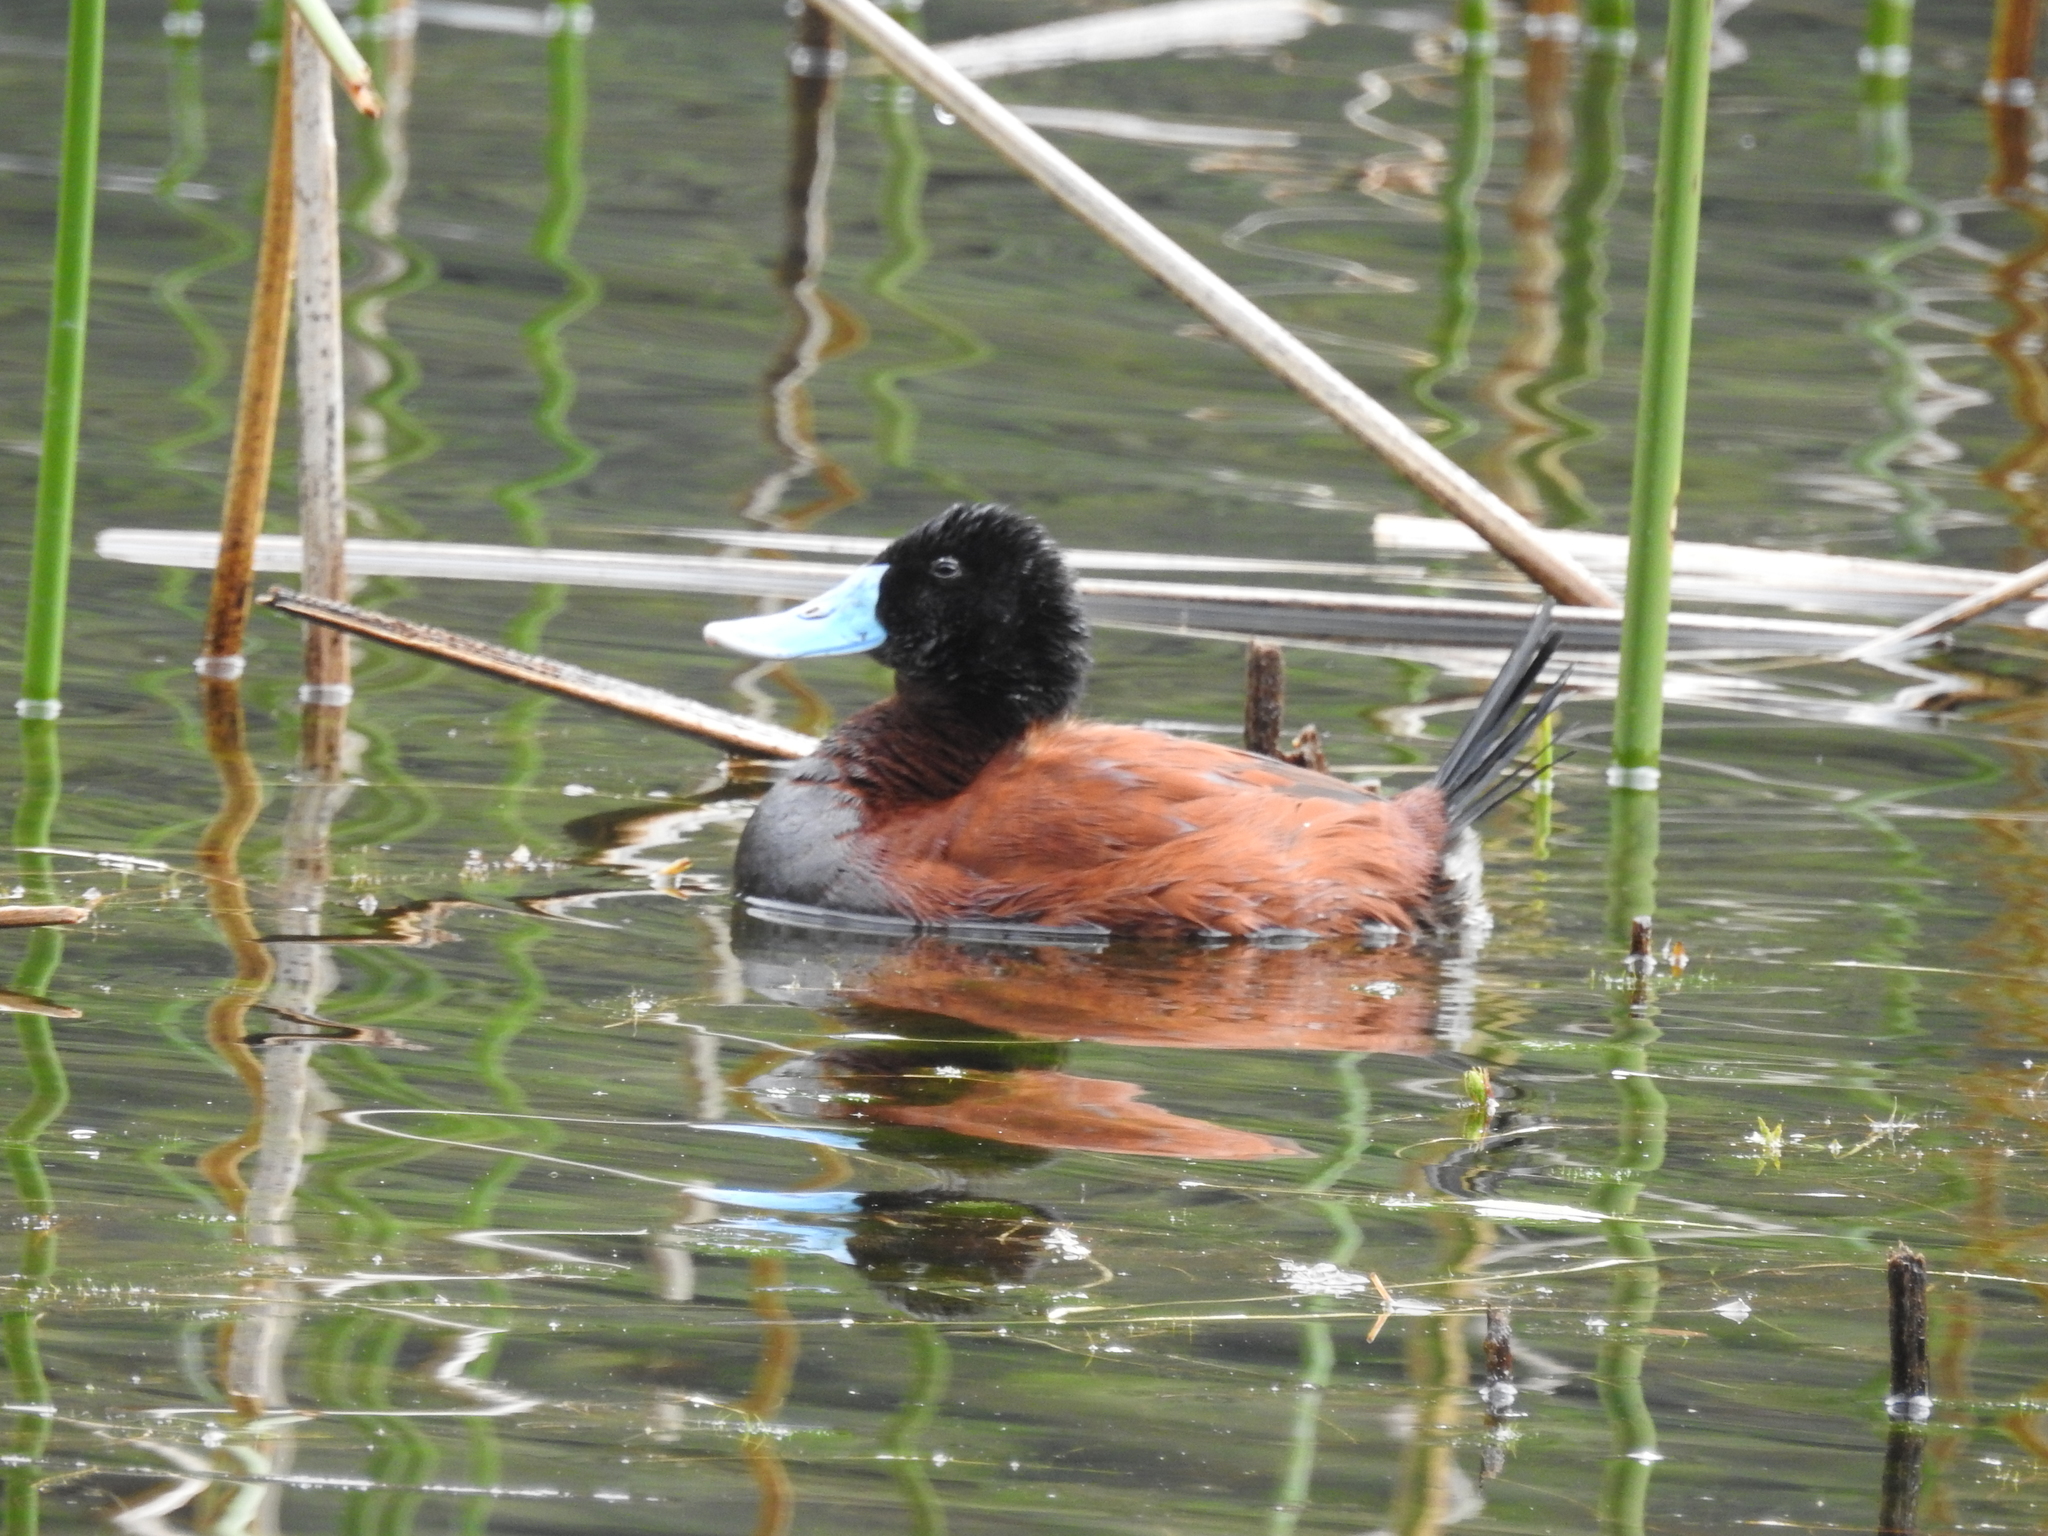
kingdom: Animalia
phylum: Chordata
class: Aves
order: Anseriformes
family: Anatidae
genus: Oxyura
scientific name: Oxyura ferruginea
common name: Andean duck
